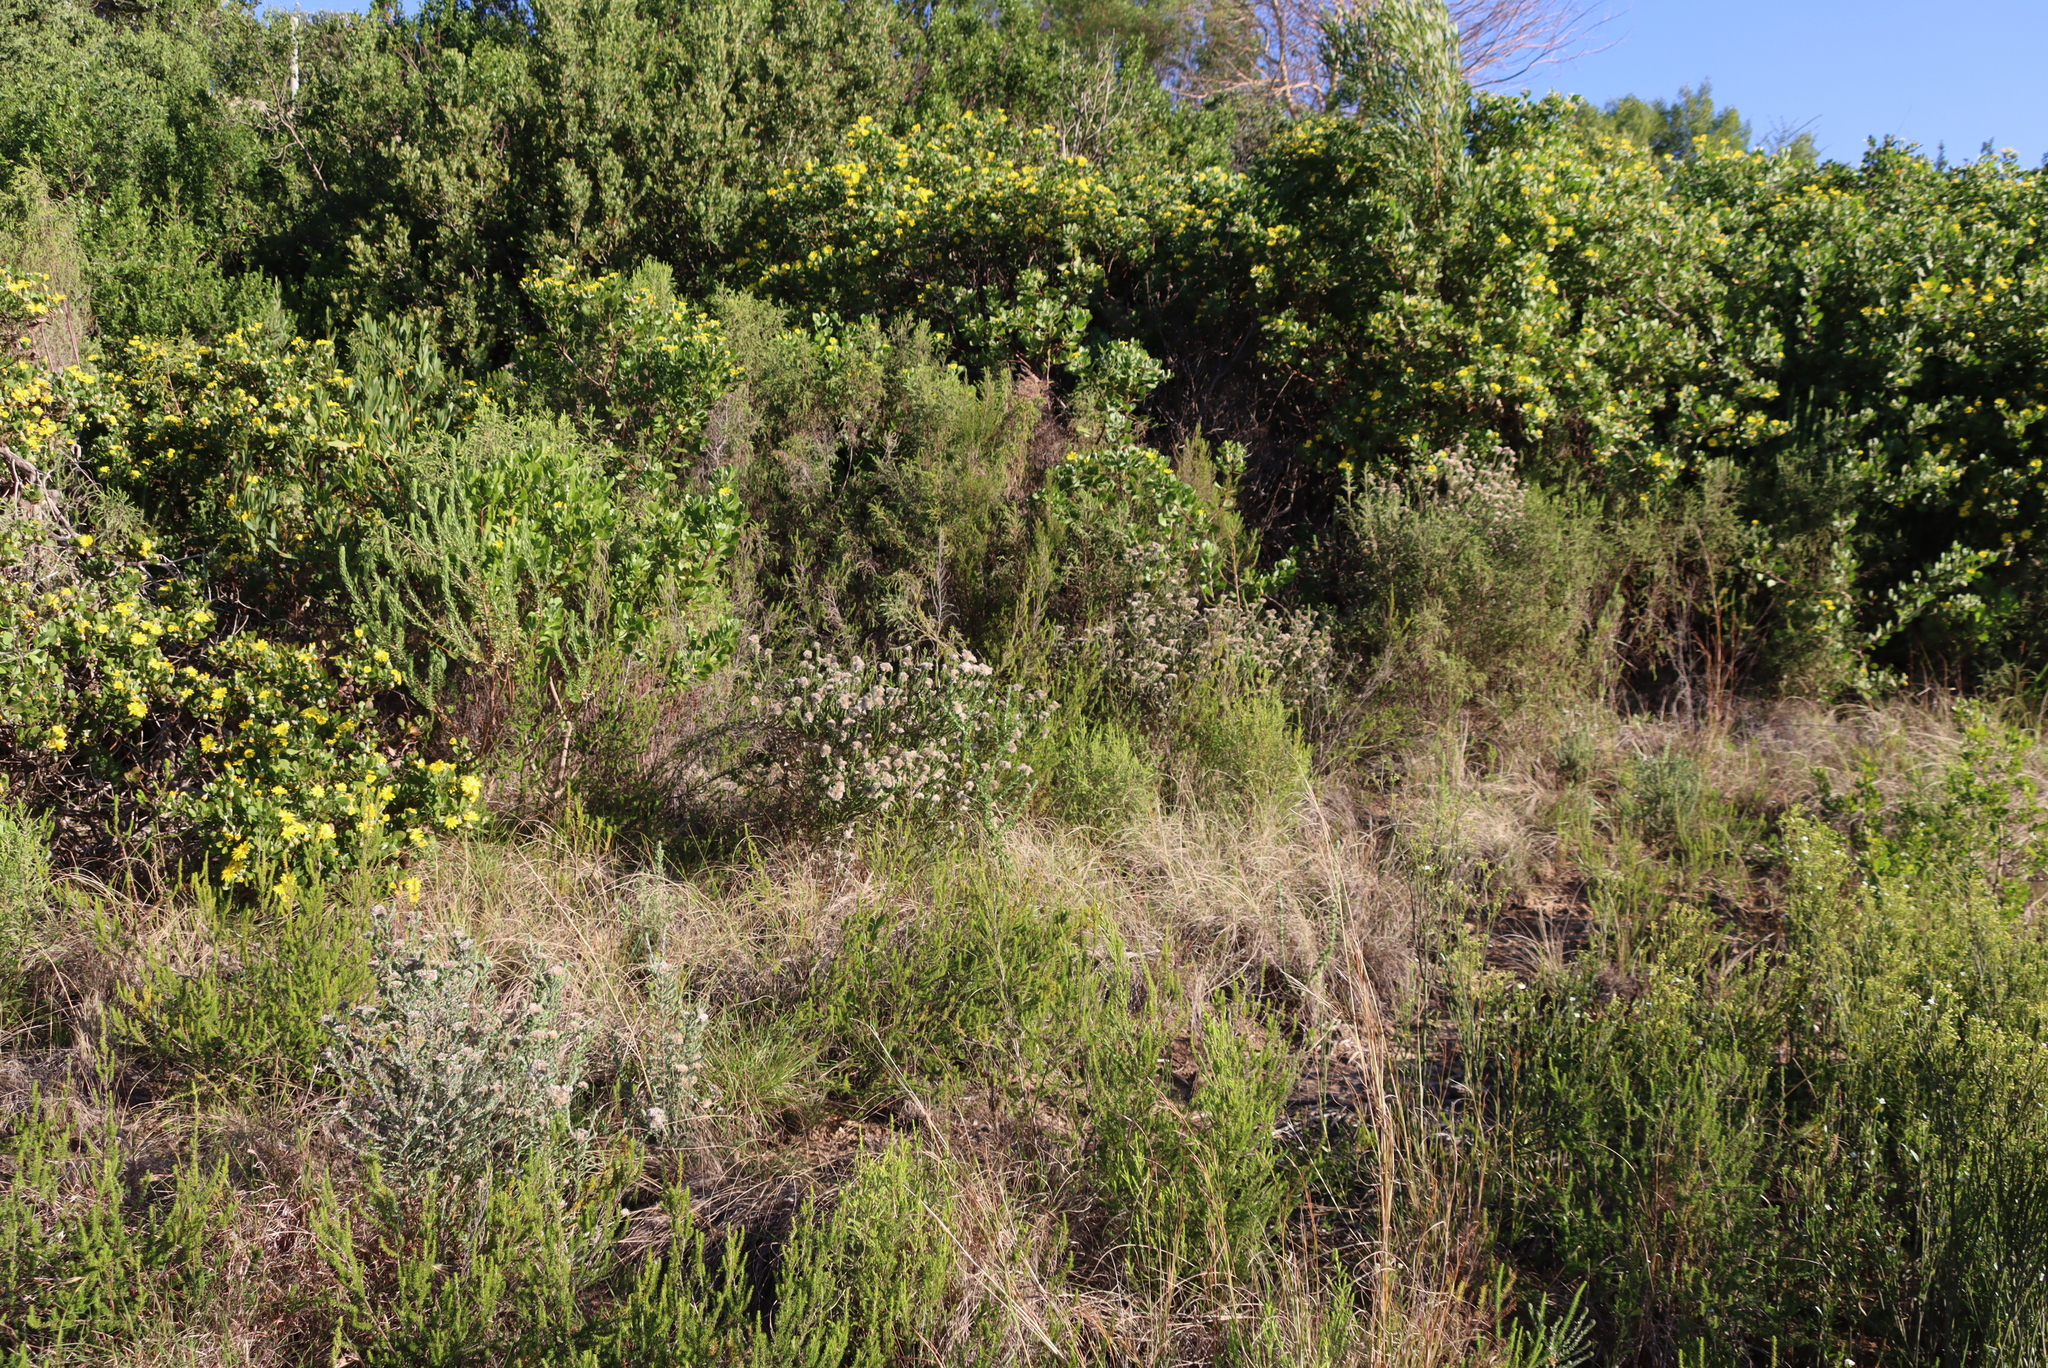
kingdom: Plantae
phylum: Tracheophyta
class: Magnoliopsida
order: Asterales
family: Asteraceae
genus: Metalasia
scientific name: Metalasia pungens
